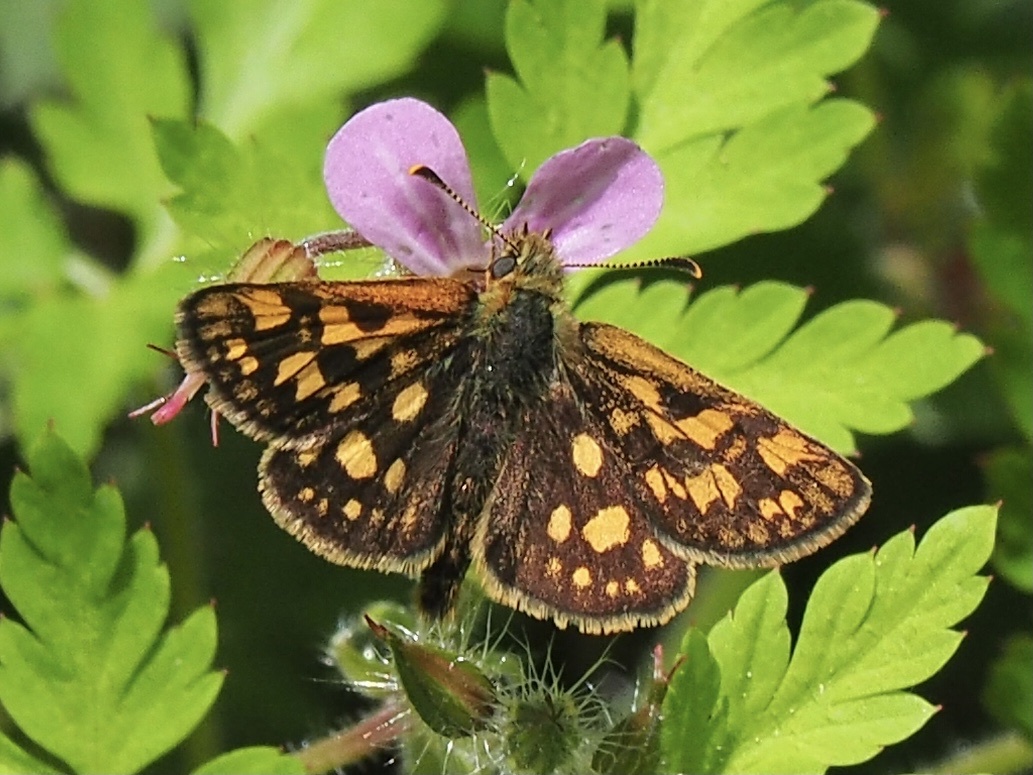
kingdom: Animalia
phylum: Arthropoda
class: Insecta
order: Lepidoptera
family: Hesperiidae
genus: Carterocephalus
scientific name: Carterocephalus palaemon
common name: Chequered skipper
